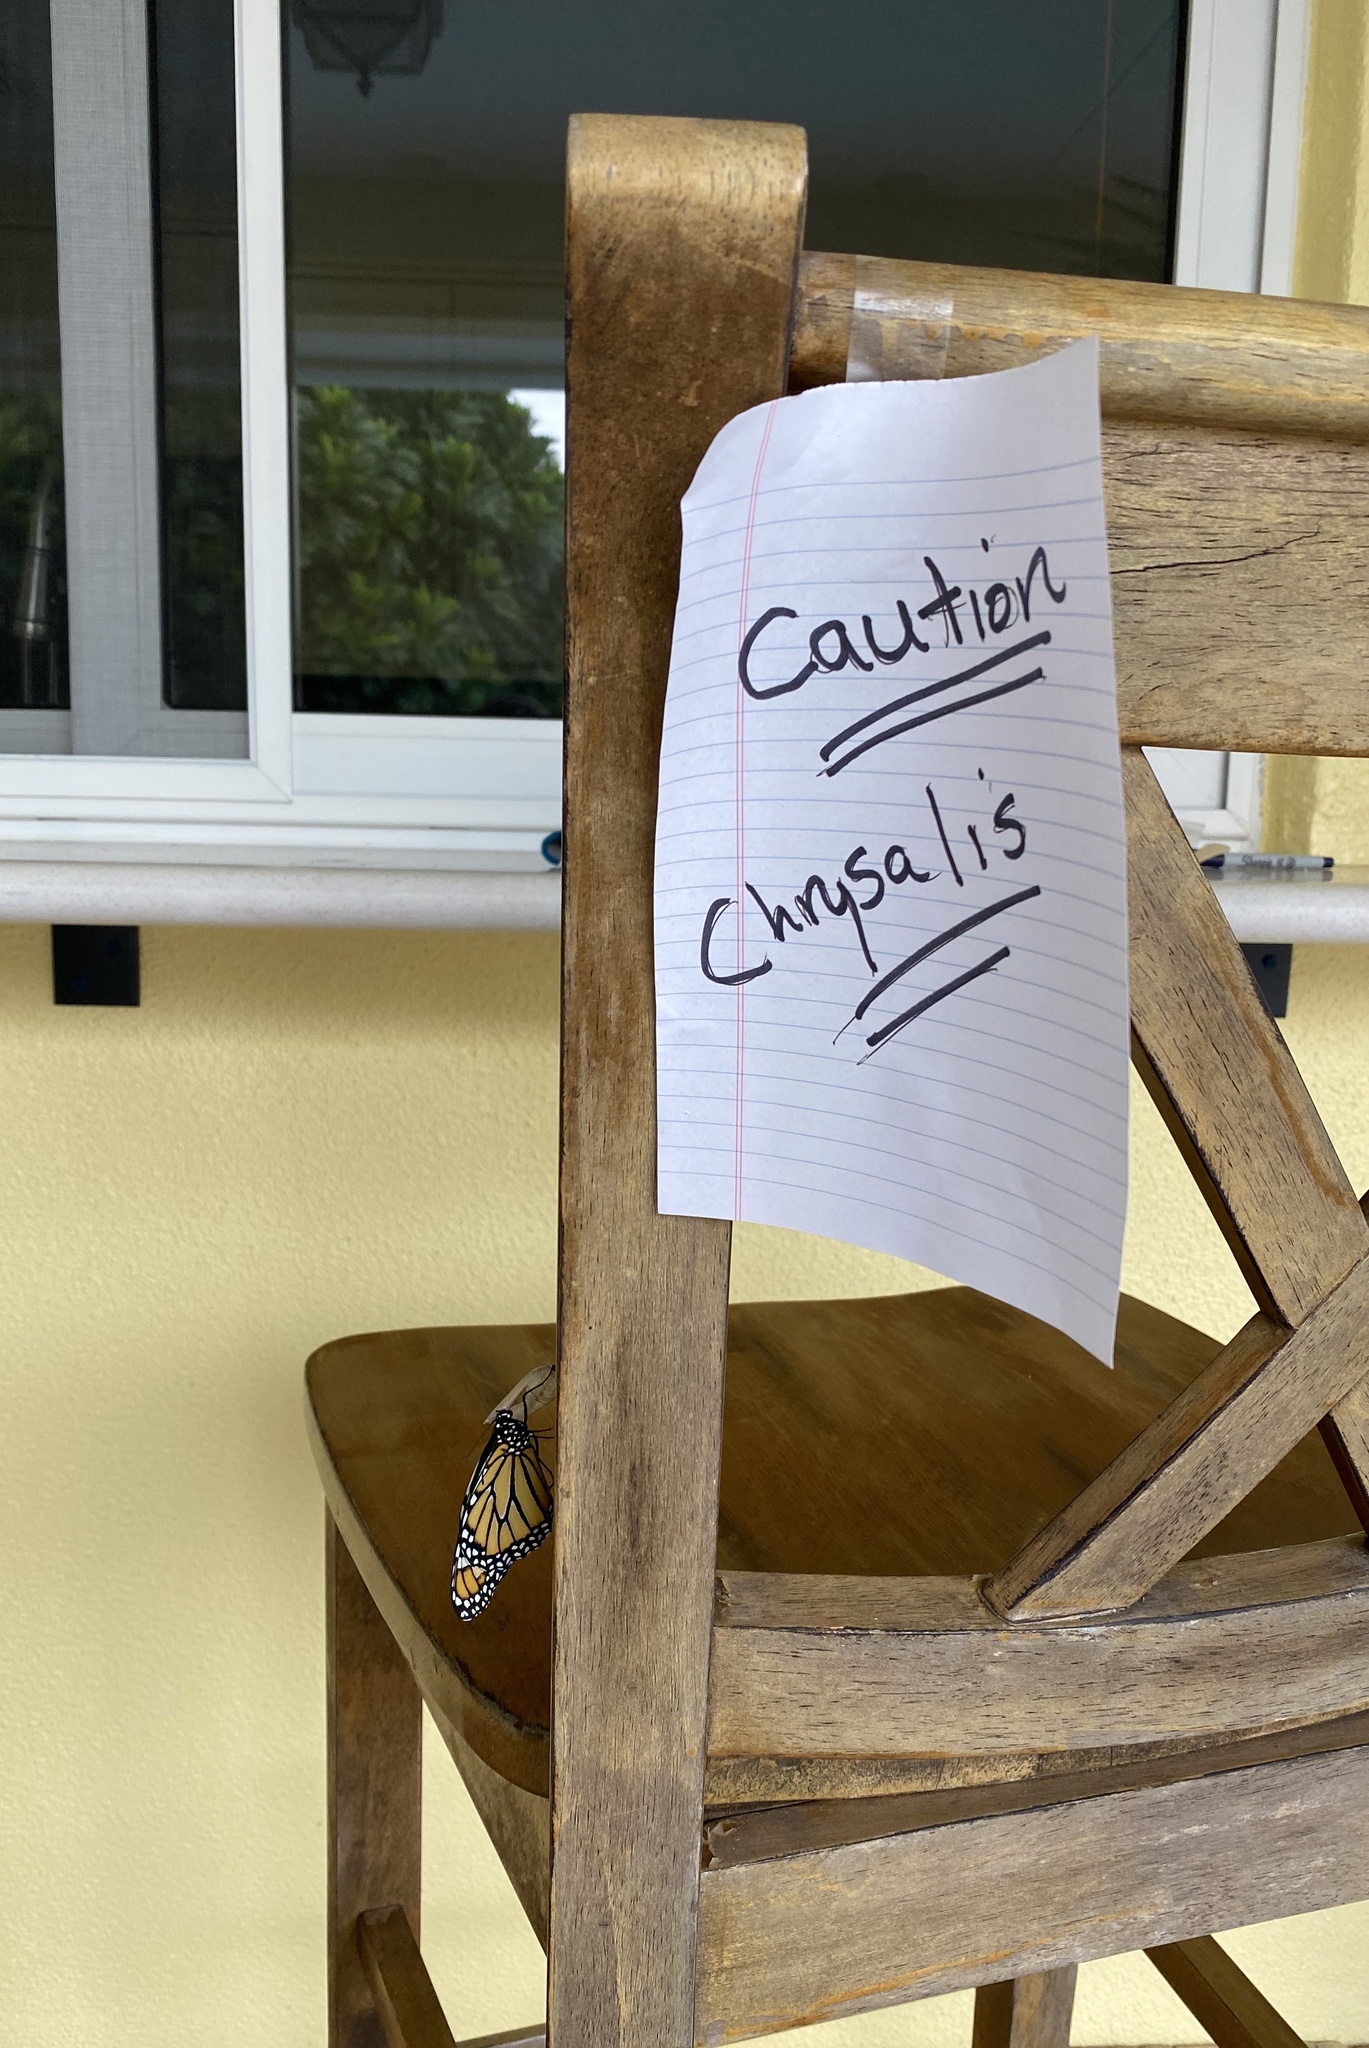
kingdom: Animalia
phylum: Arthropoda
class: Insecta
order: Lepidoptera
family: Nymphalidae
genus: Danaus
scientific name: Danaus plexippus
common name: Monarch
